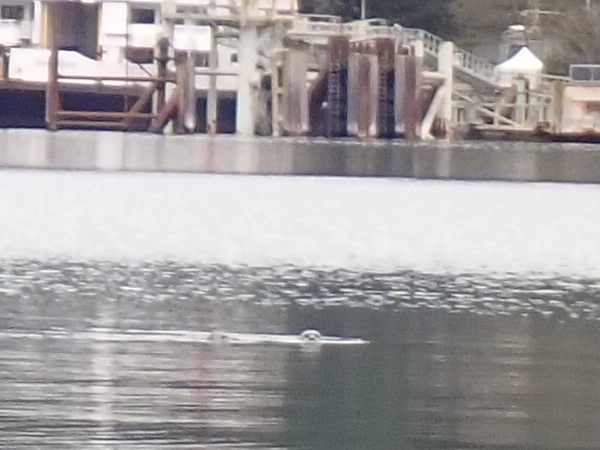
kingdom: Animalia
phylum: Chordata
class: Mammalia
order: Carnivora
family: Mustelidae
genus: Lontra
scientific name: Lontra canadensis
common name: North american river otter
